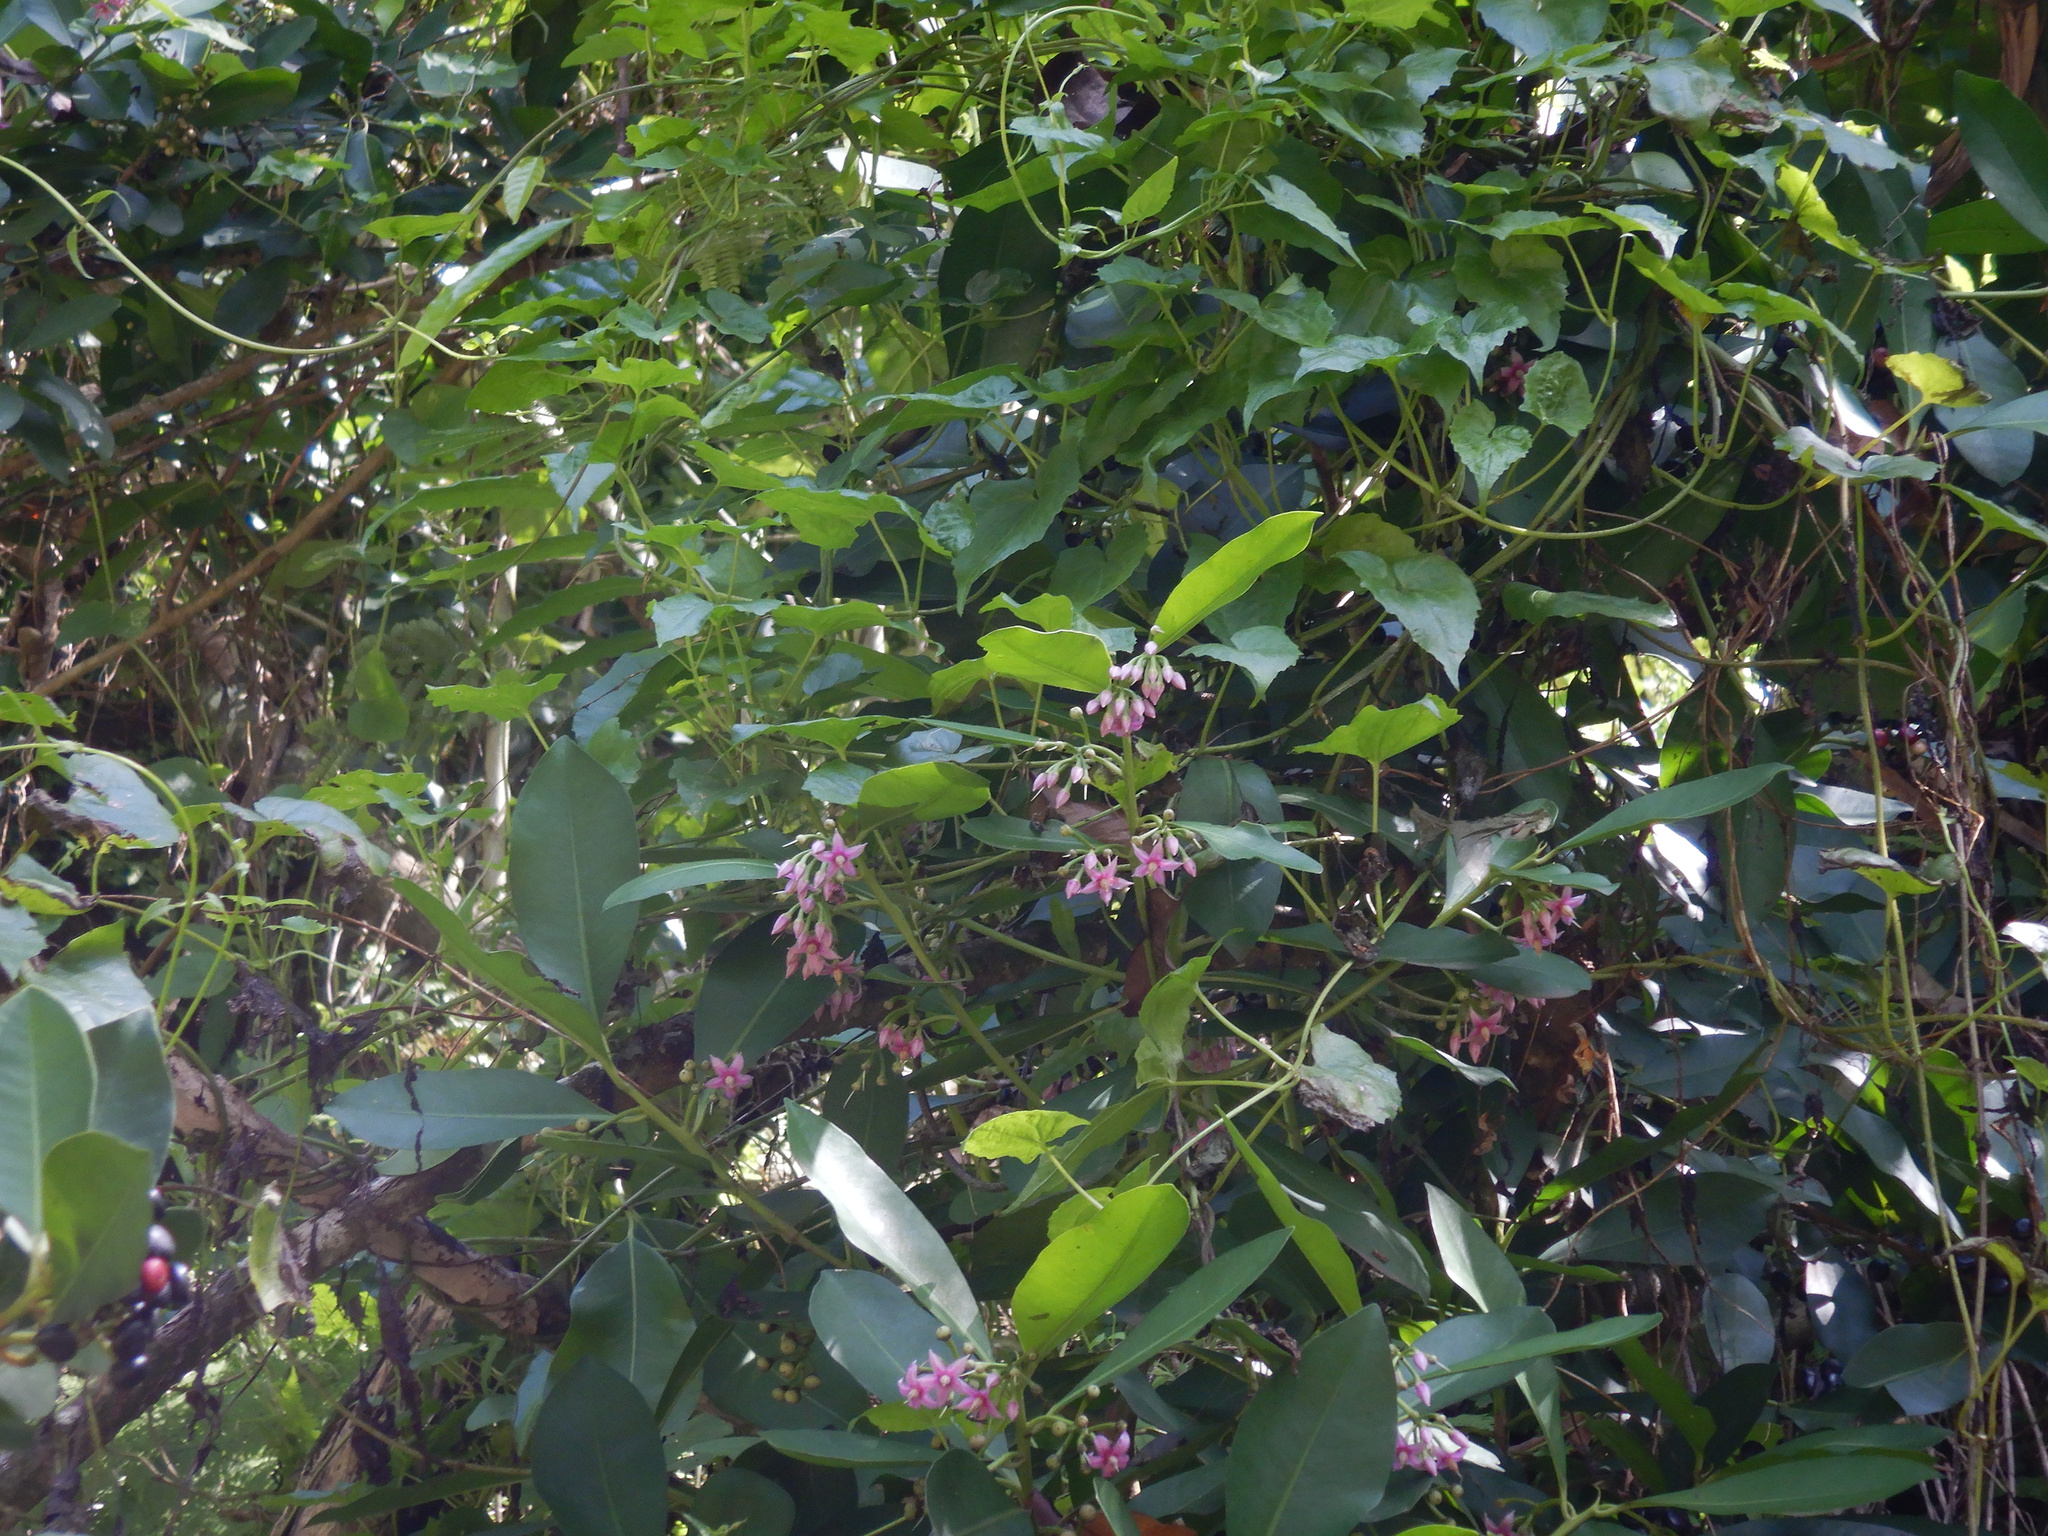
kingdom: Plantae
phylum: Tracheophyta
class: Magnoliopsida
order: Ericales
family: Primulaceae
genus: Ardisia
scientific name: Ardisia elliptica
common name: Shoebutton
